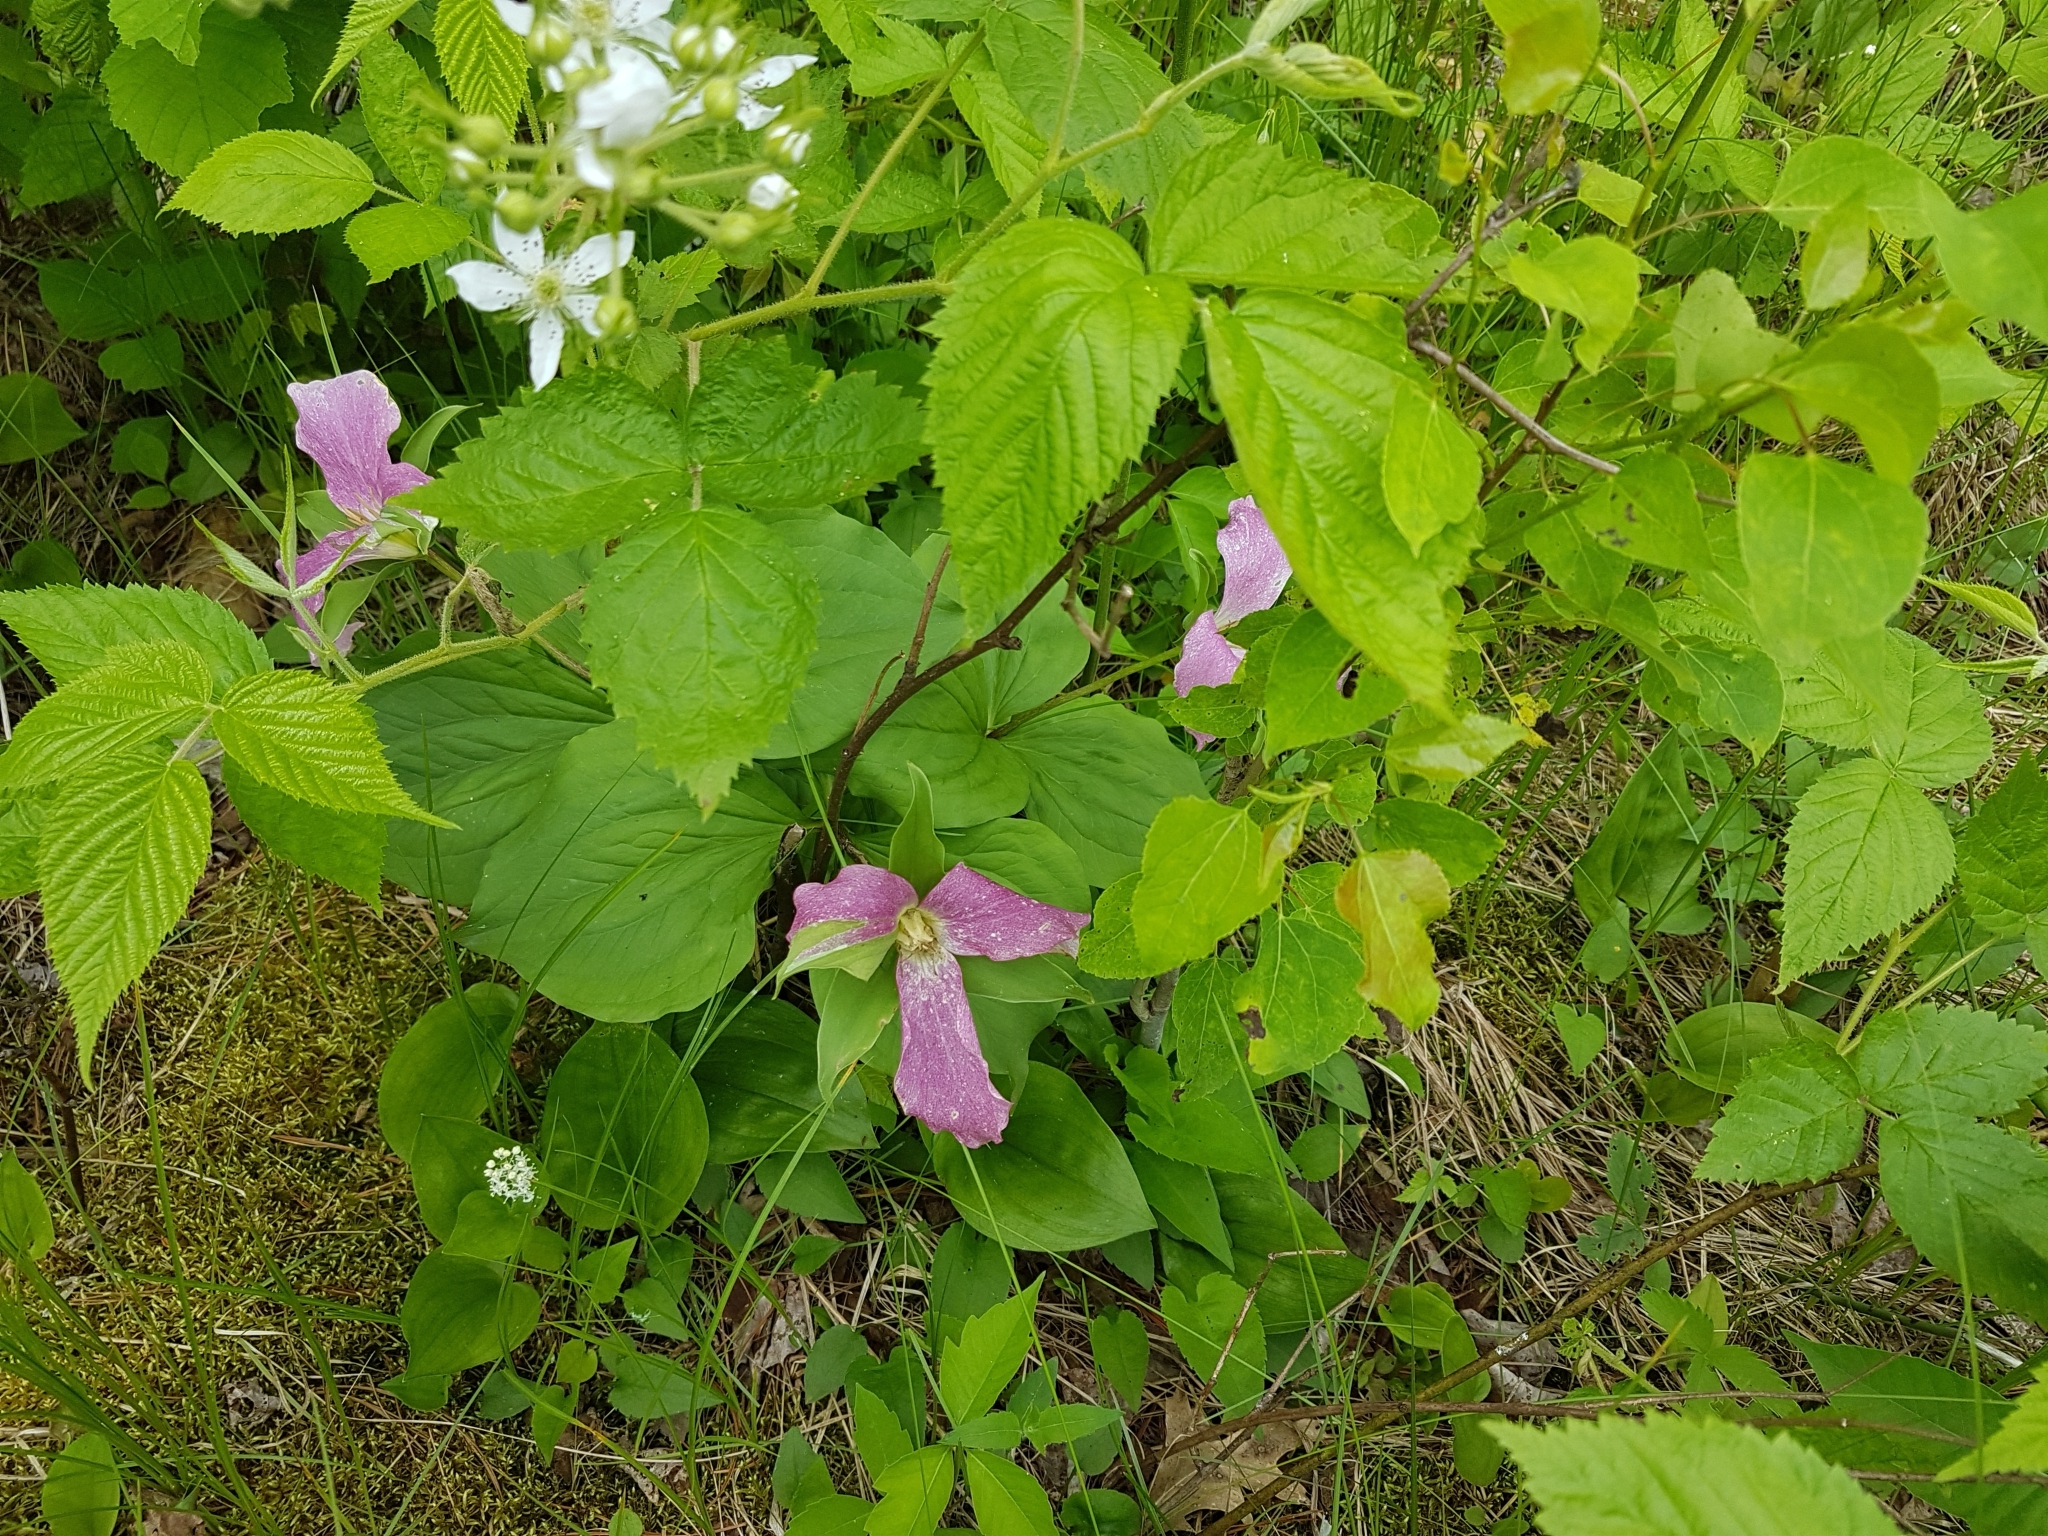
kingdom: Plantae
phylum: Tracheophyta
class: Liliopsida
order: Liliales
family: Melanthiaceae
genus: Trillium
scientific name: Trillium grandiflorum
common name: Great white trillium
